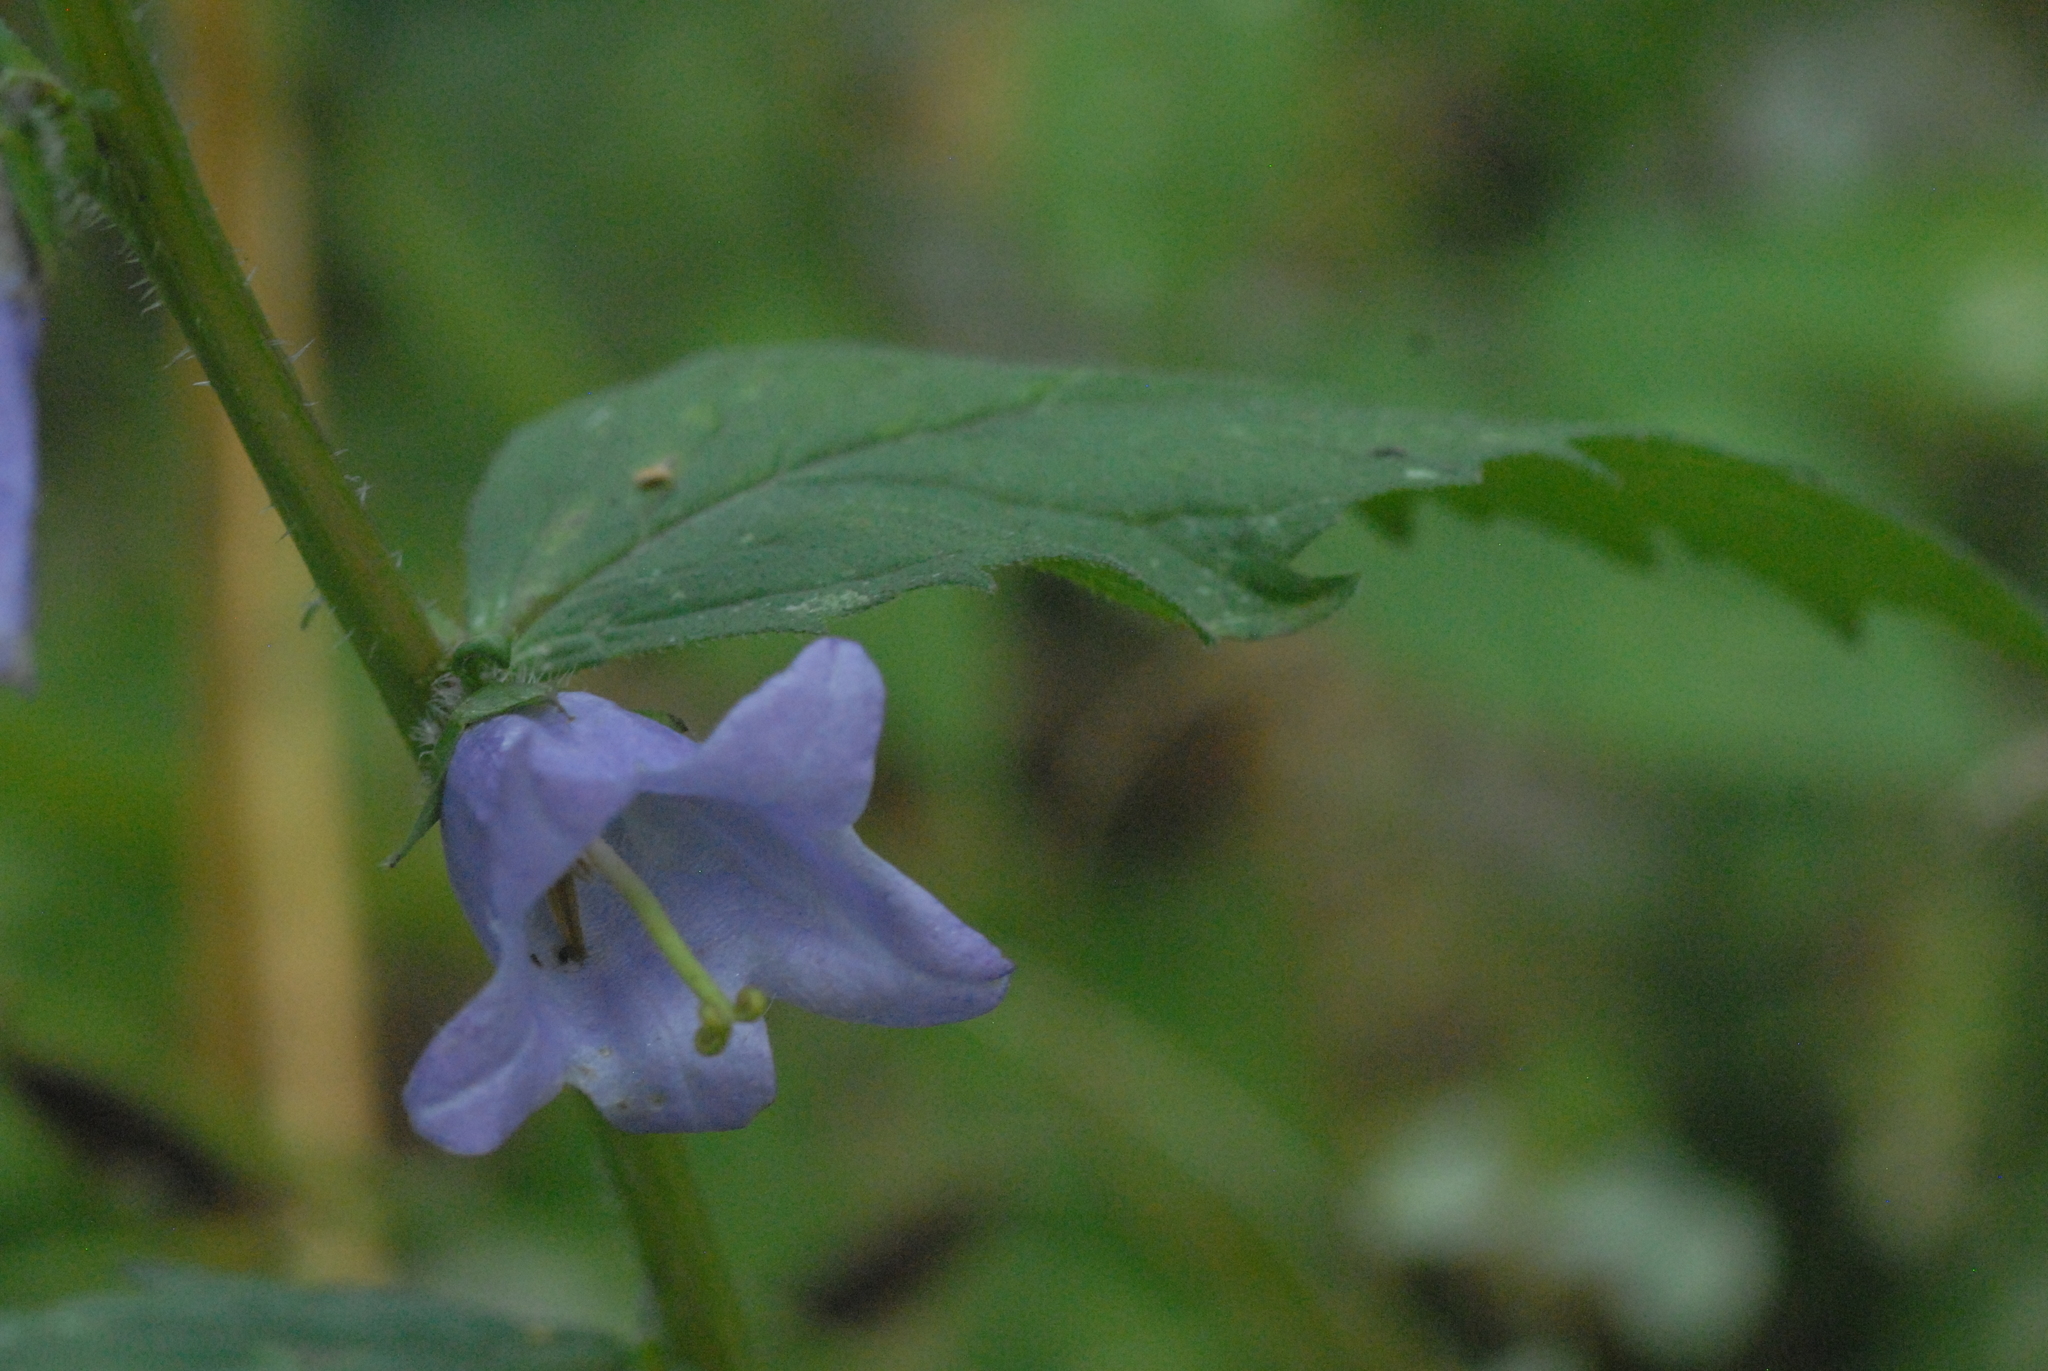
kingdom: Plantae
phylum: Tracheophyta
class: Magnoliopsida
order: Asterales
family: Campanulaceae
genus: Campanula
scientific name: Campanula trachelium
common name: Nettle-leaved bellflower
